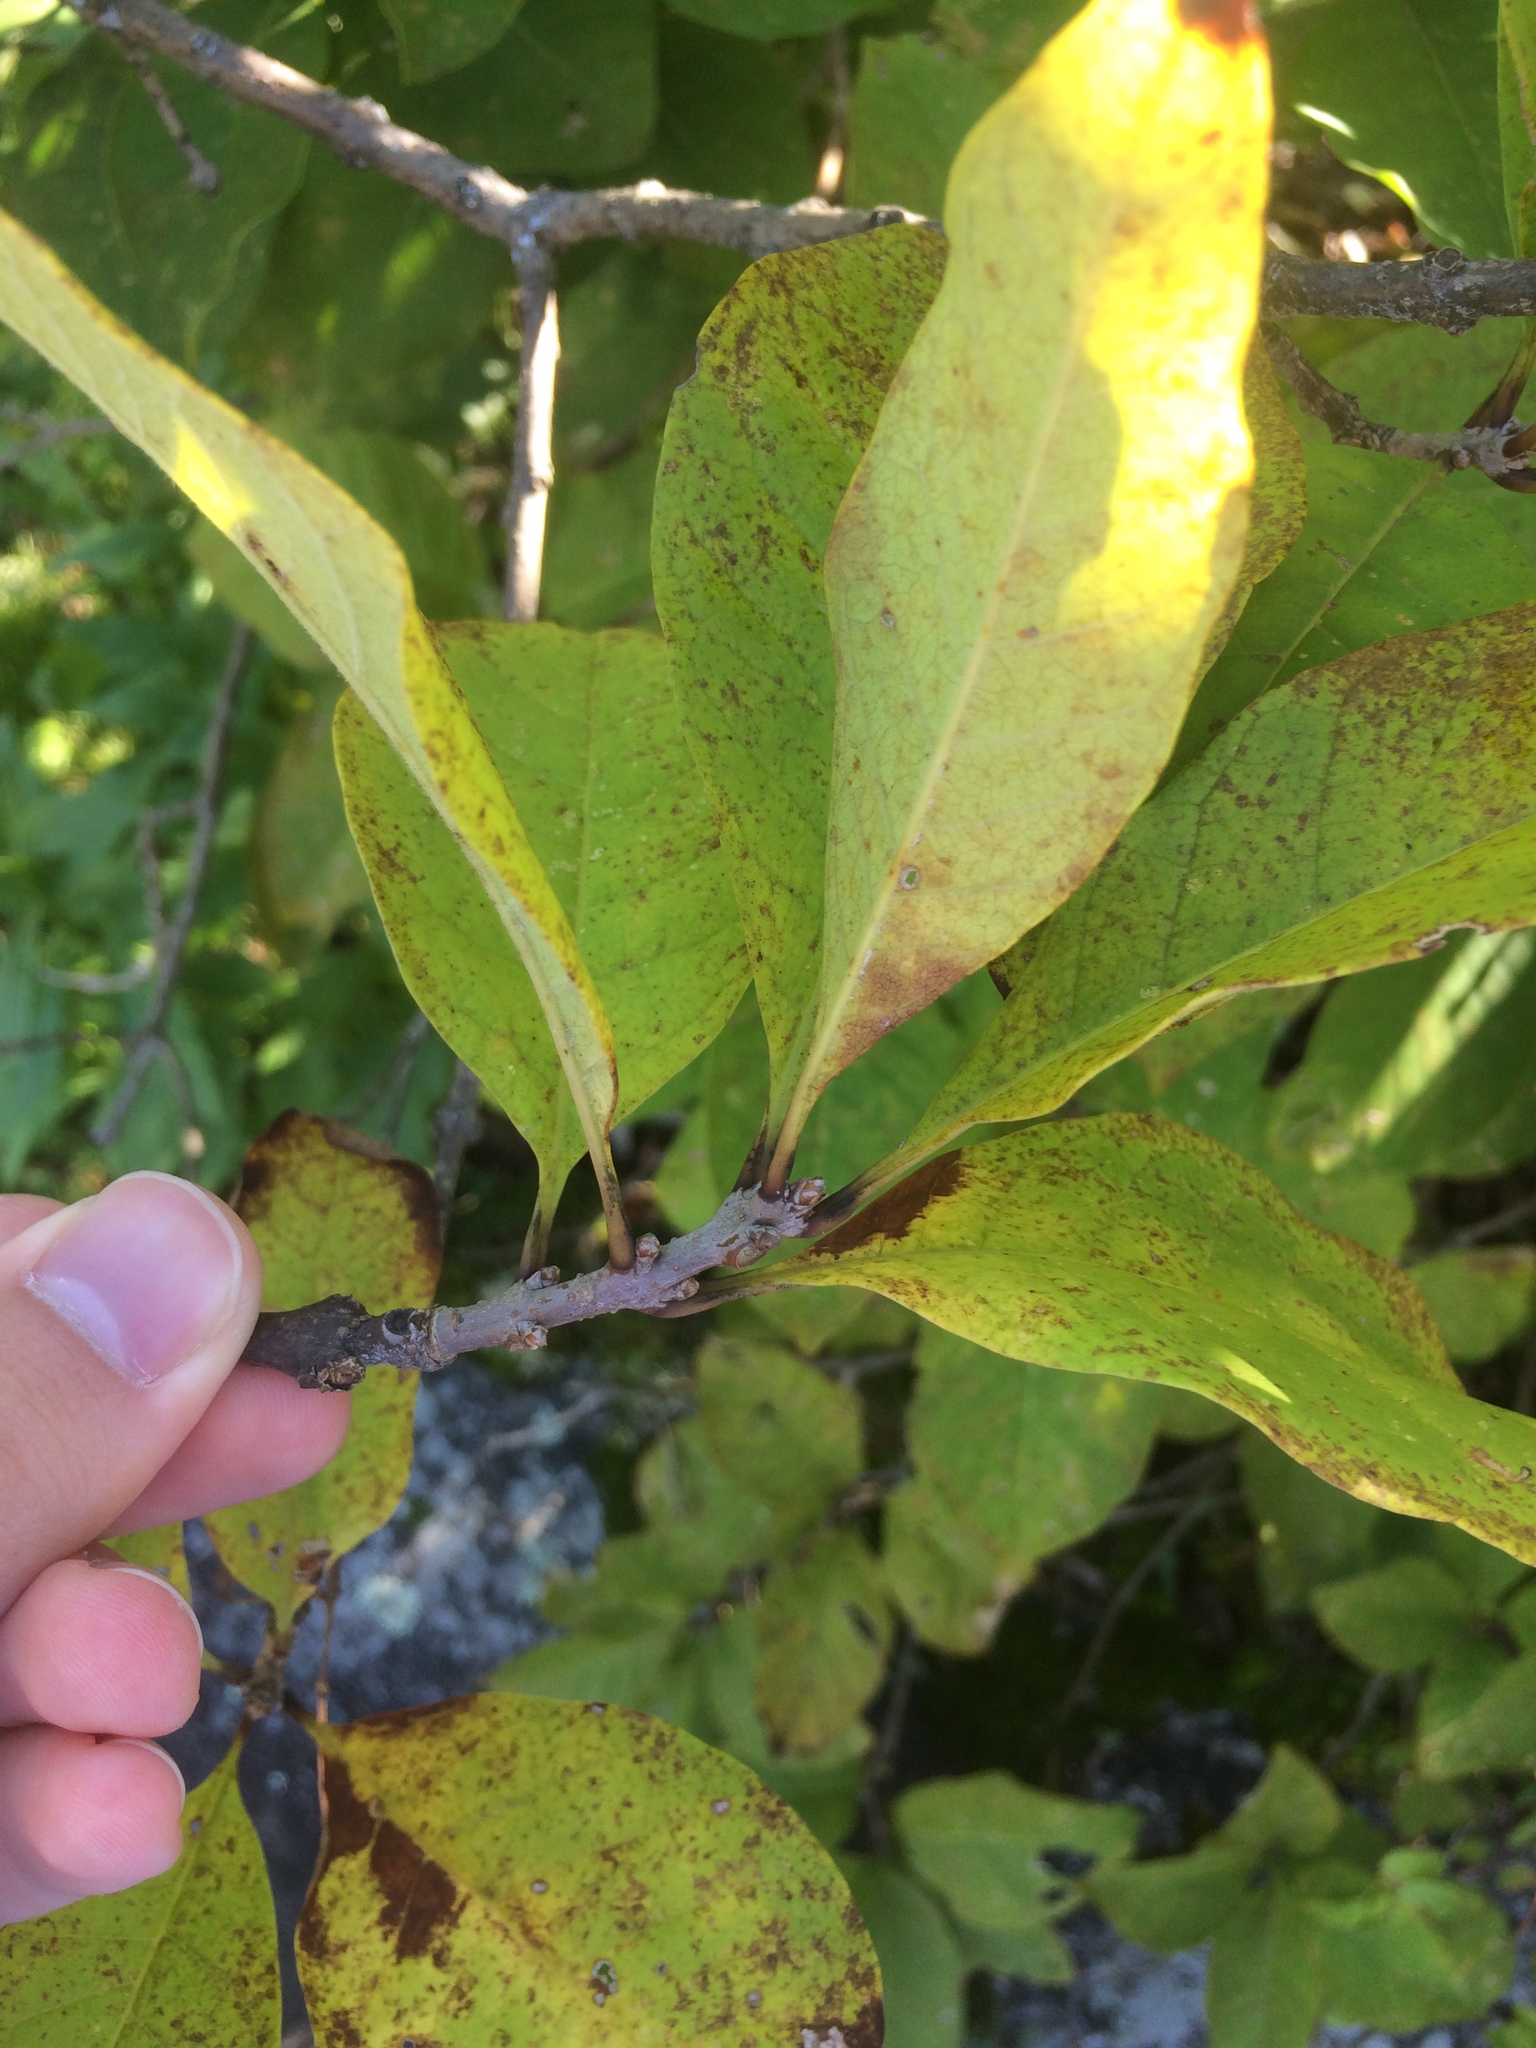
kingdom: Plantae
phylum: Tracheophyta
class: Magnoliopsida
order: Lamiales
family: Oleaceae
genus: Chionanthus
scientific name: Chionanthus virginicus
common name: American fringetree
